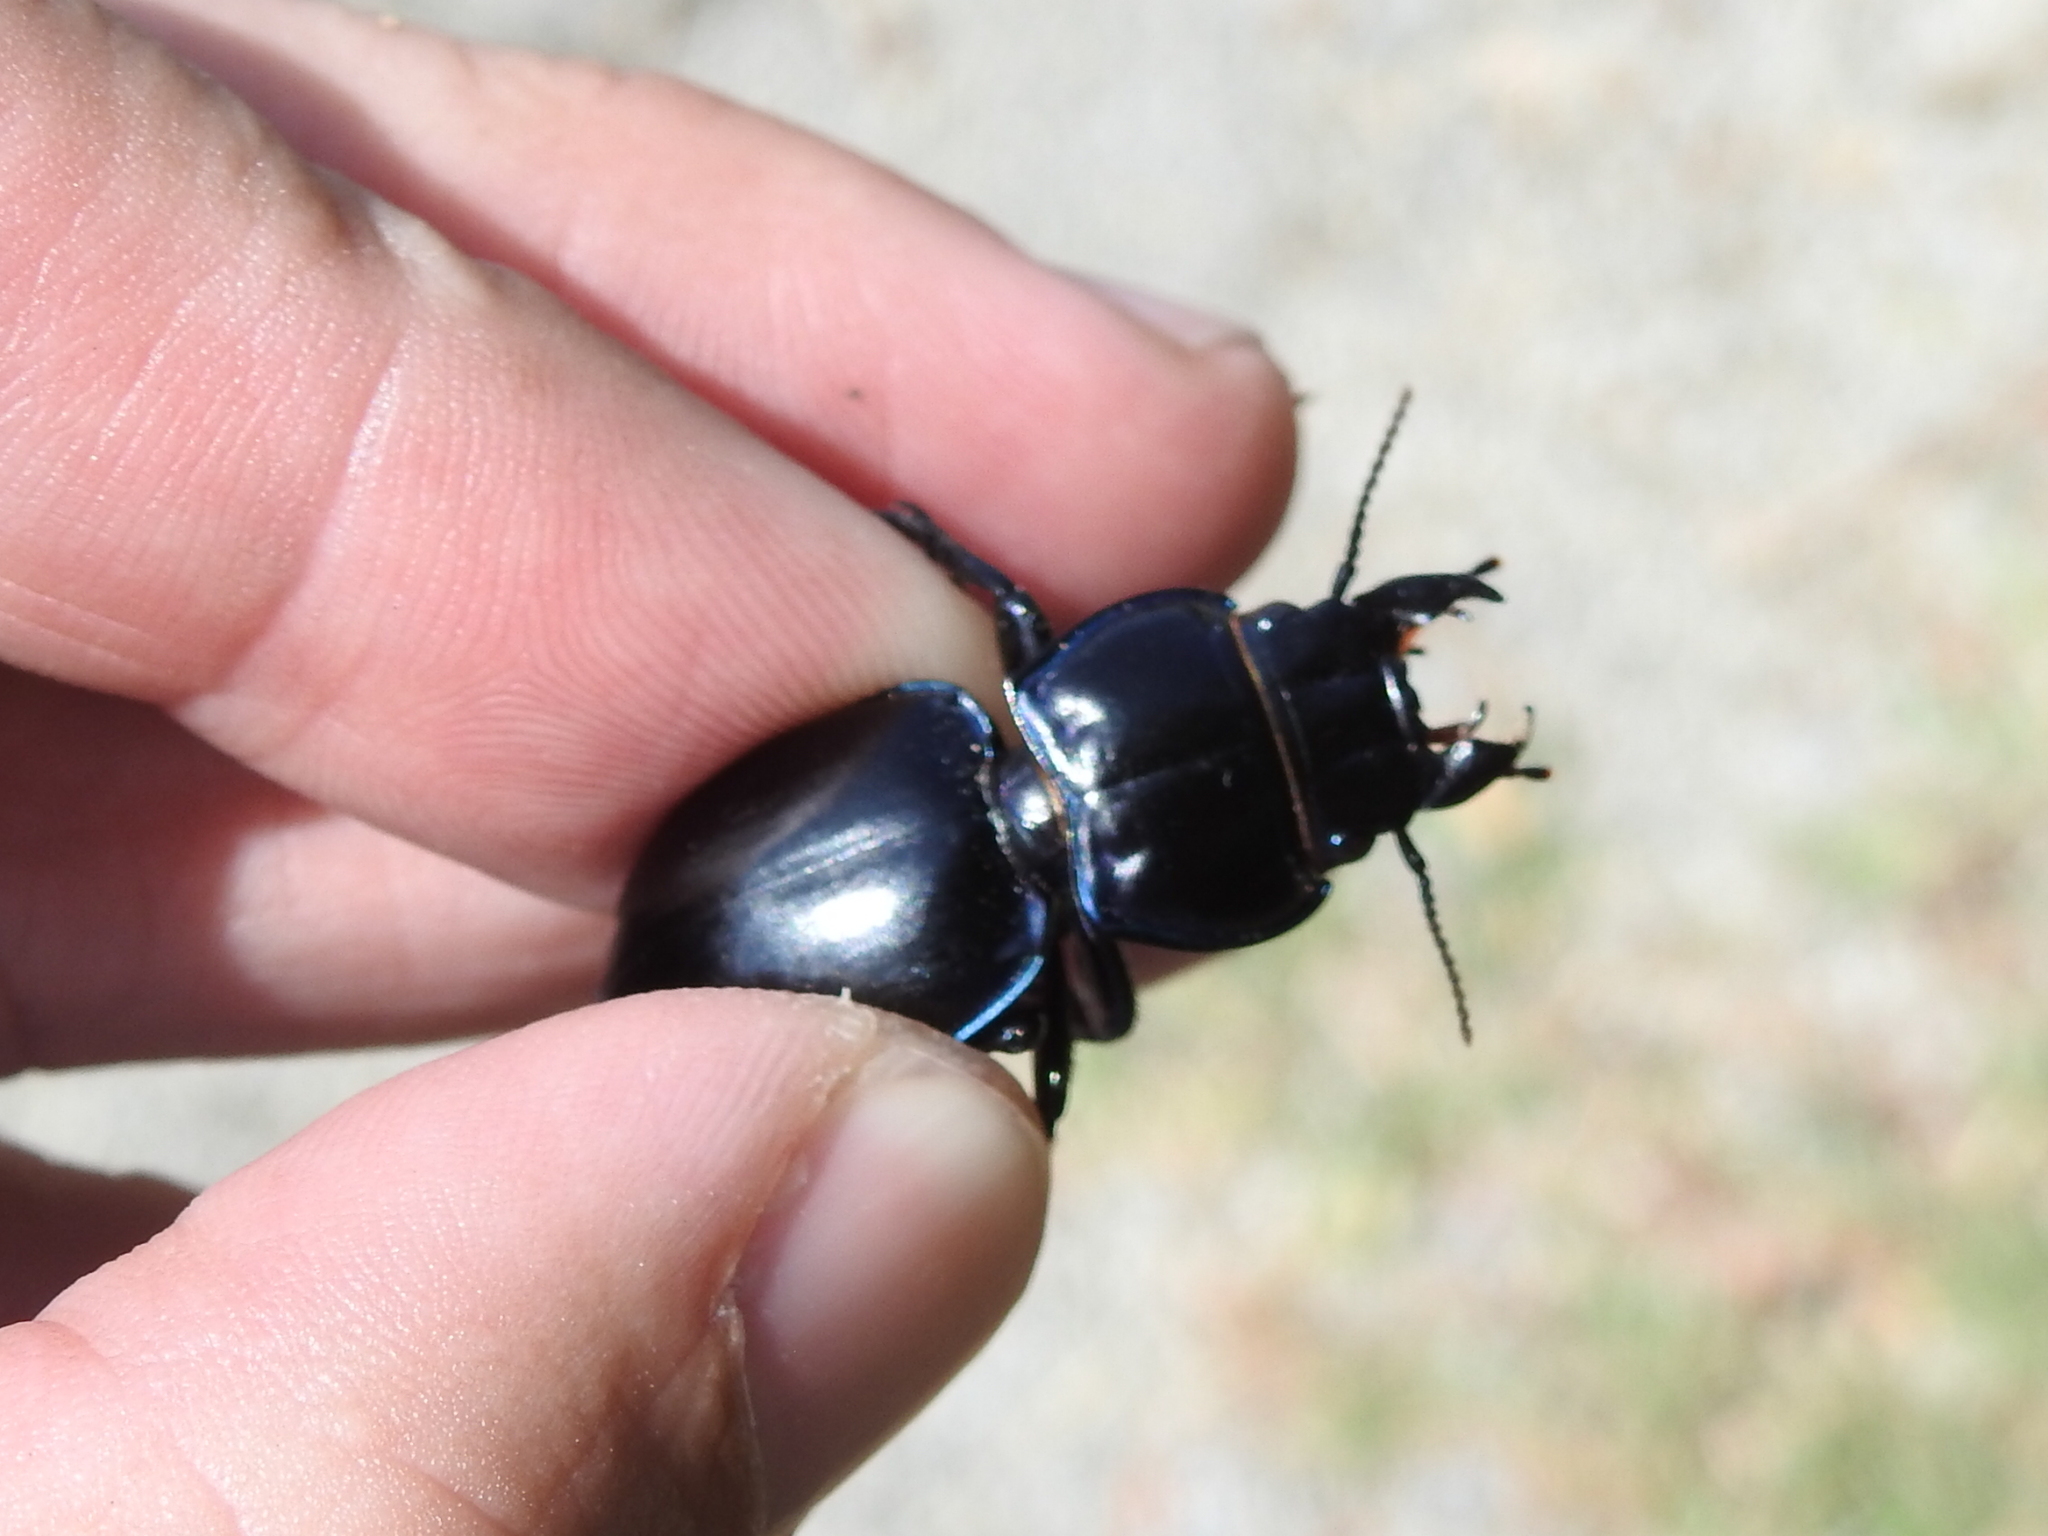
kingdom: Animalia
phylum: Arthropoda
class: Insecta
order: Coleoptera
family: Carabidae
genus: Pasimachus
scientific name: Pasimachus elongatus
